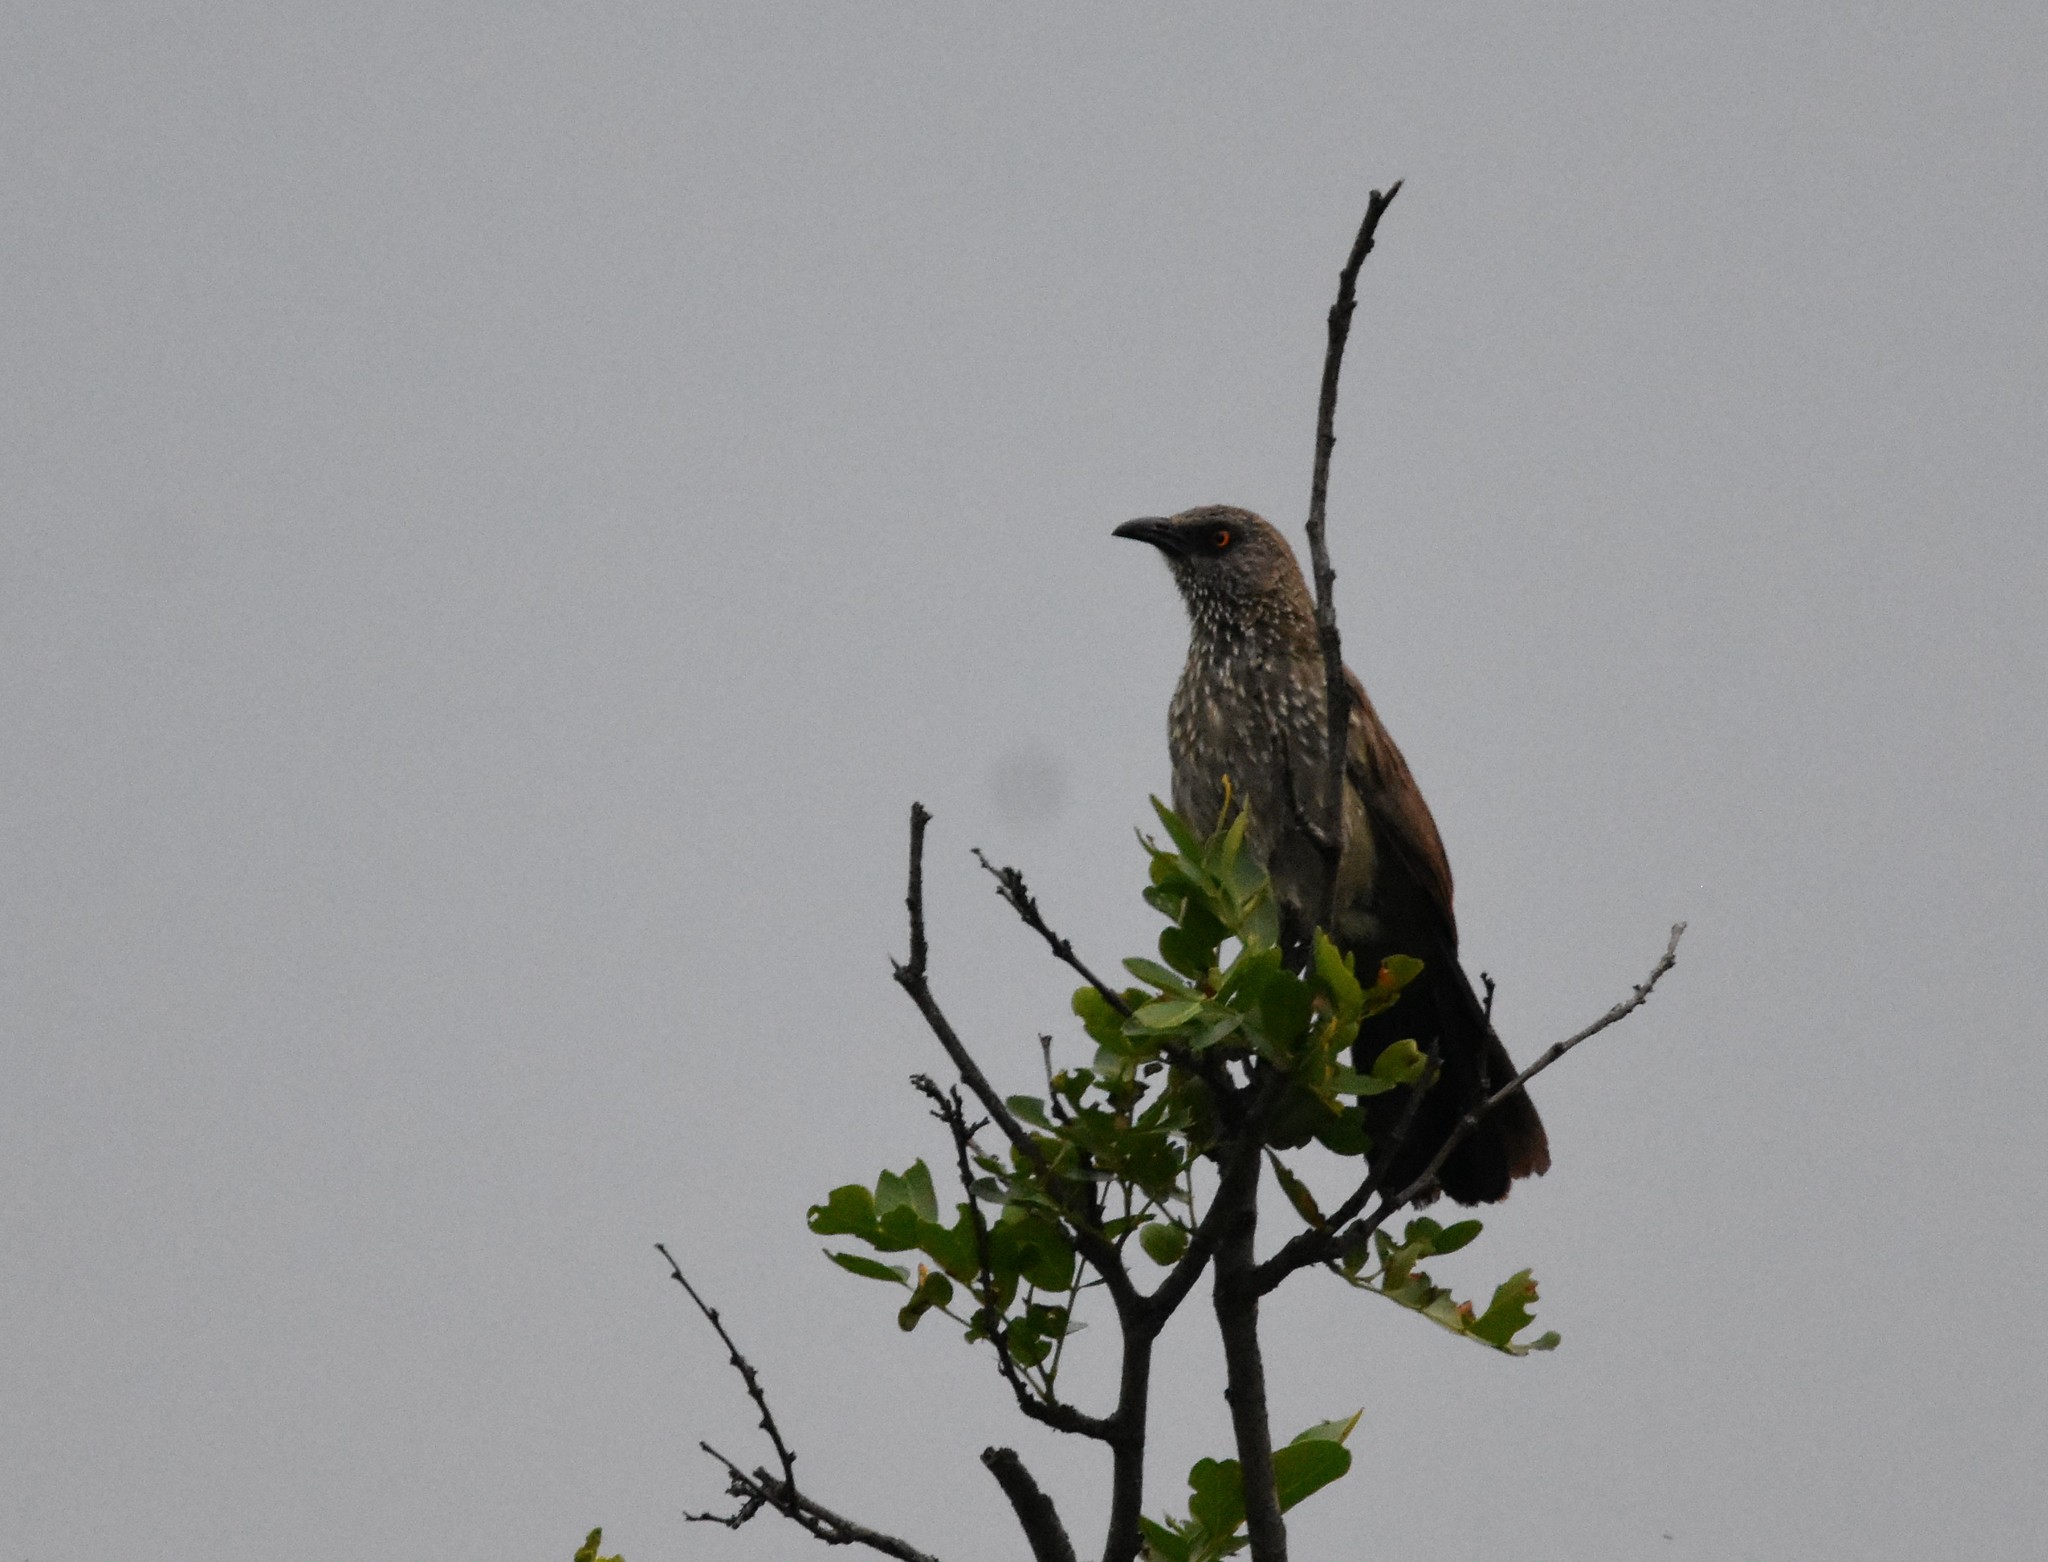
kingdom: Animalia
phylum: Chordata
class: Aves
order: Passeriformes
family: Leiothrichidae
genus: Turdoides
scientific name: Turdoides jardineii
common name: Arrow-marked babbler
